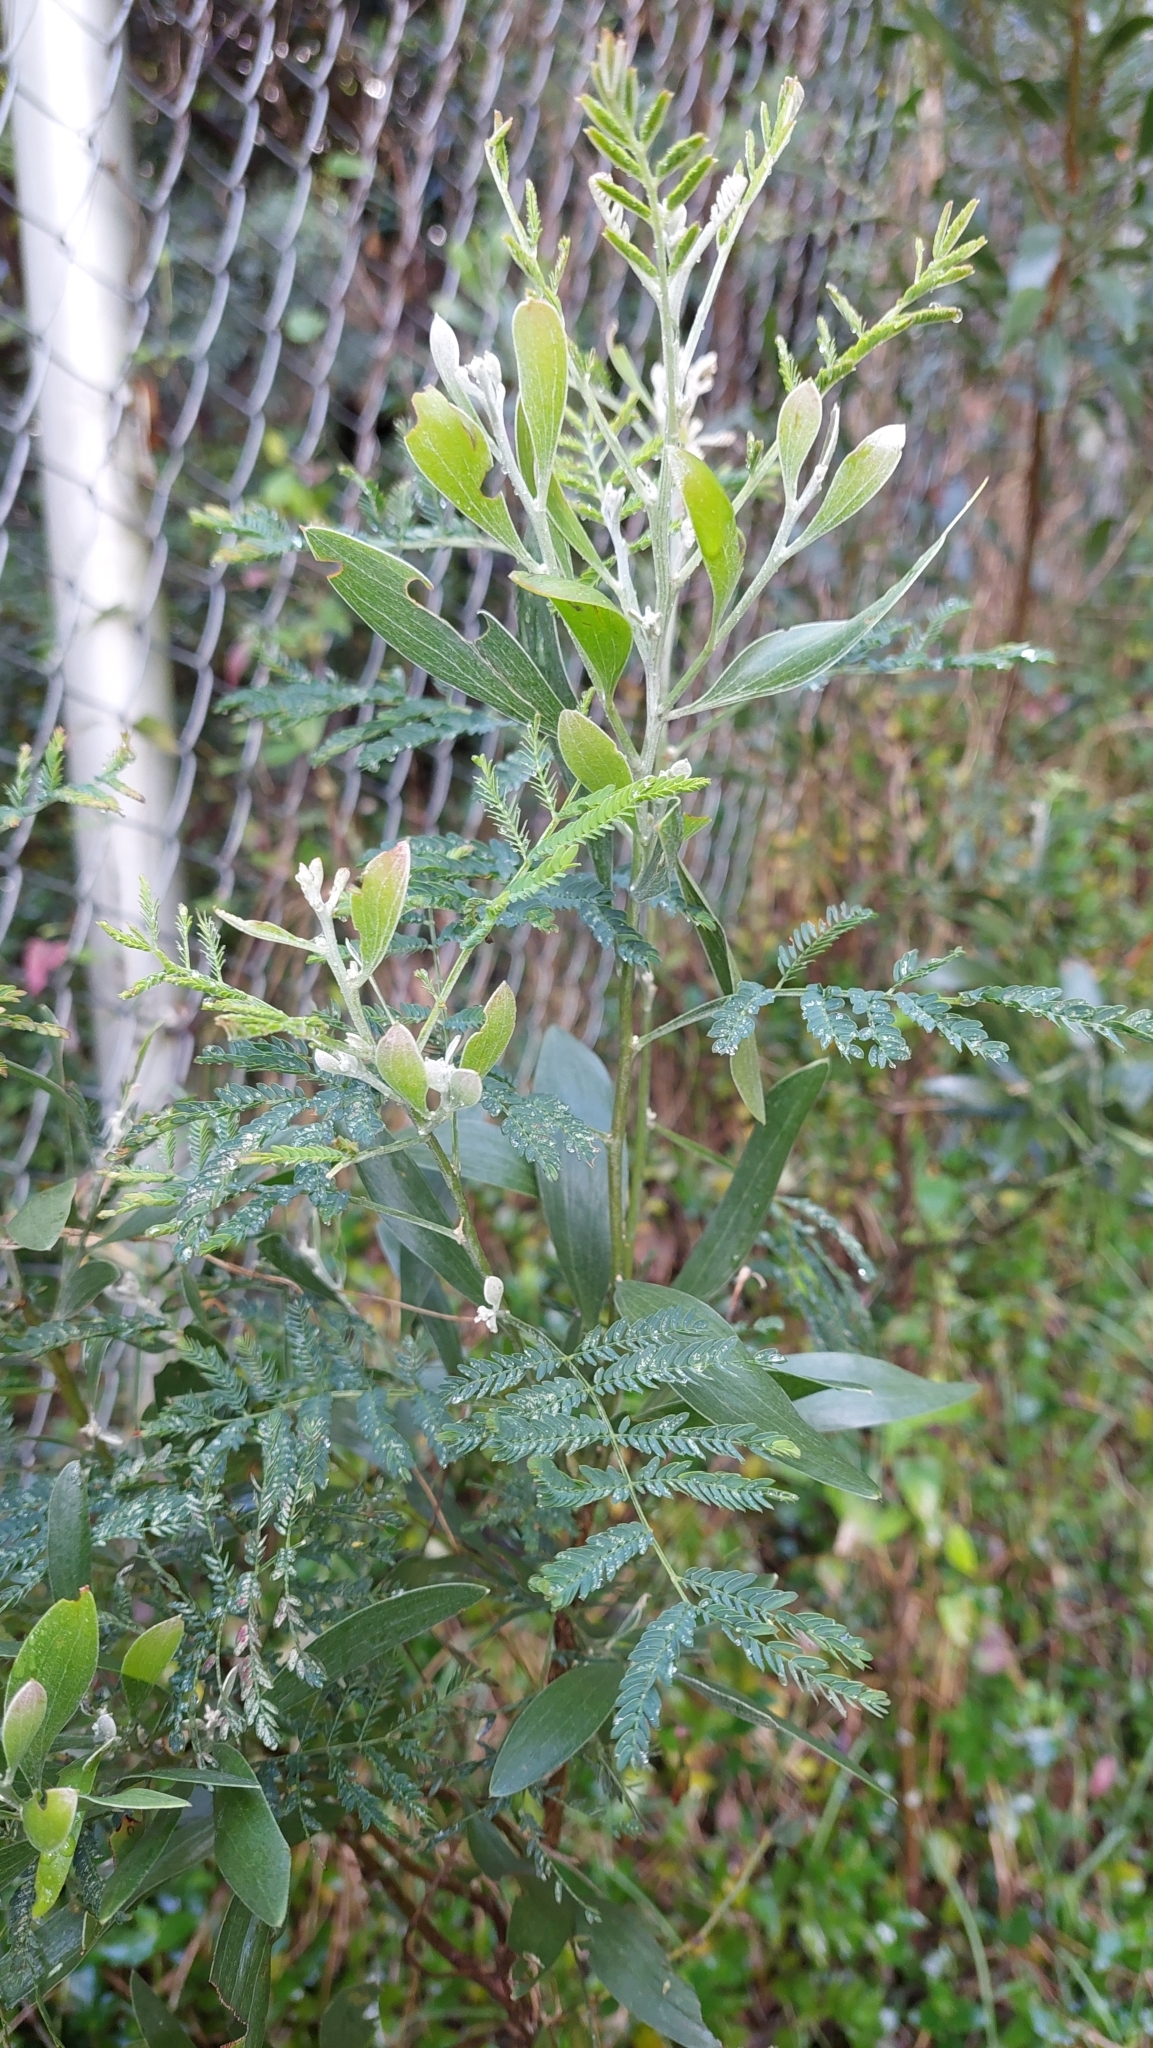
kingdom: Plantae
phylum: Tracheophyta
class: Magnoliopsida
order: Fabales
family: Fabaceae
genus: Acacia
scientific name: Acacia melanoxylon
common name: Blackwood
